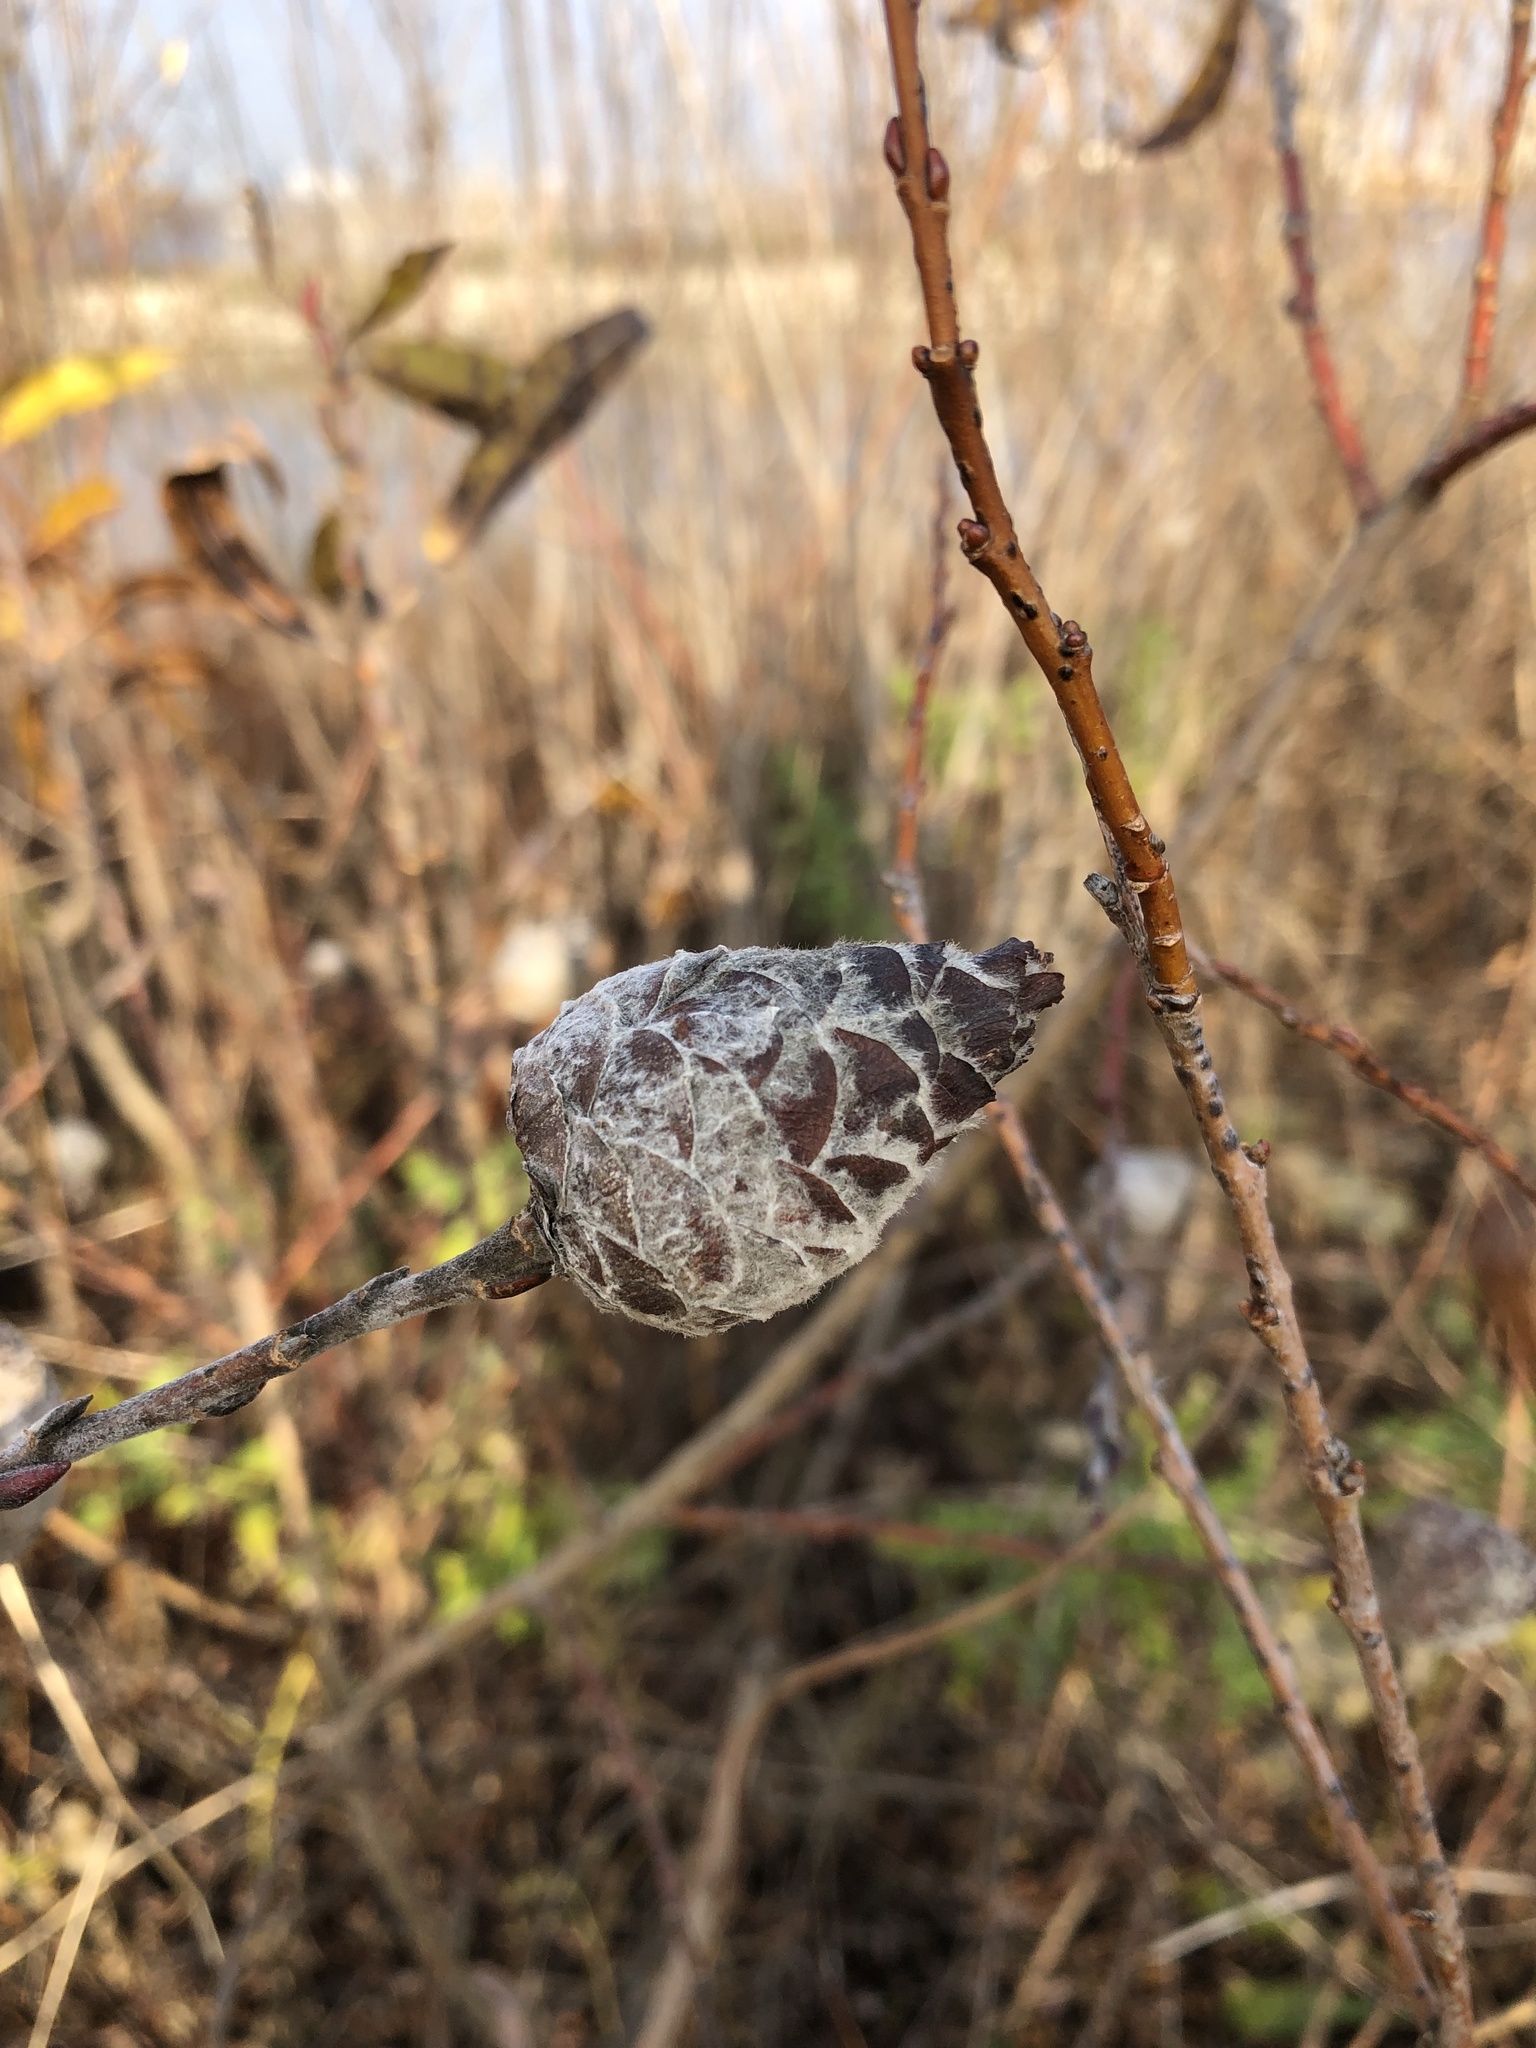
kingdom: Animalia
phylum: Arthropoda
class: Insecta
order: Diptera
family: Cecidomyiidae
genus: Rabdophaga
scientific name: Rabdophaga strobiloides
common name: Willow pinecone gall midge
